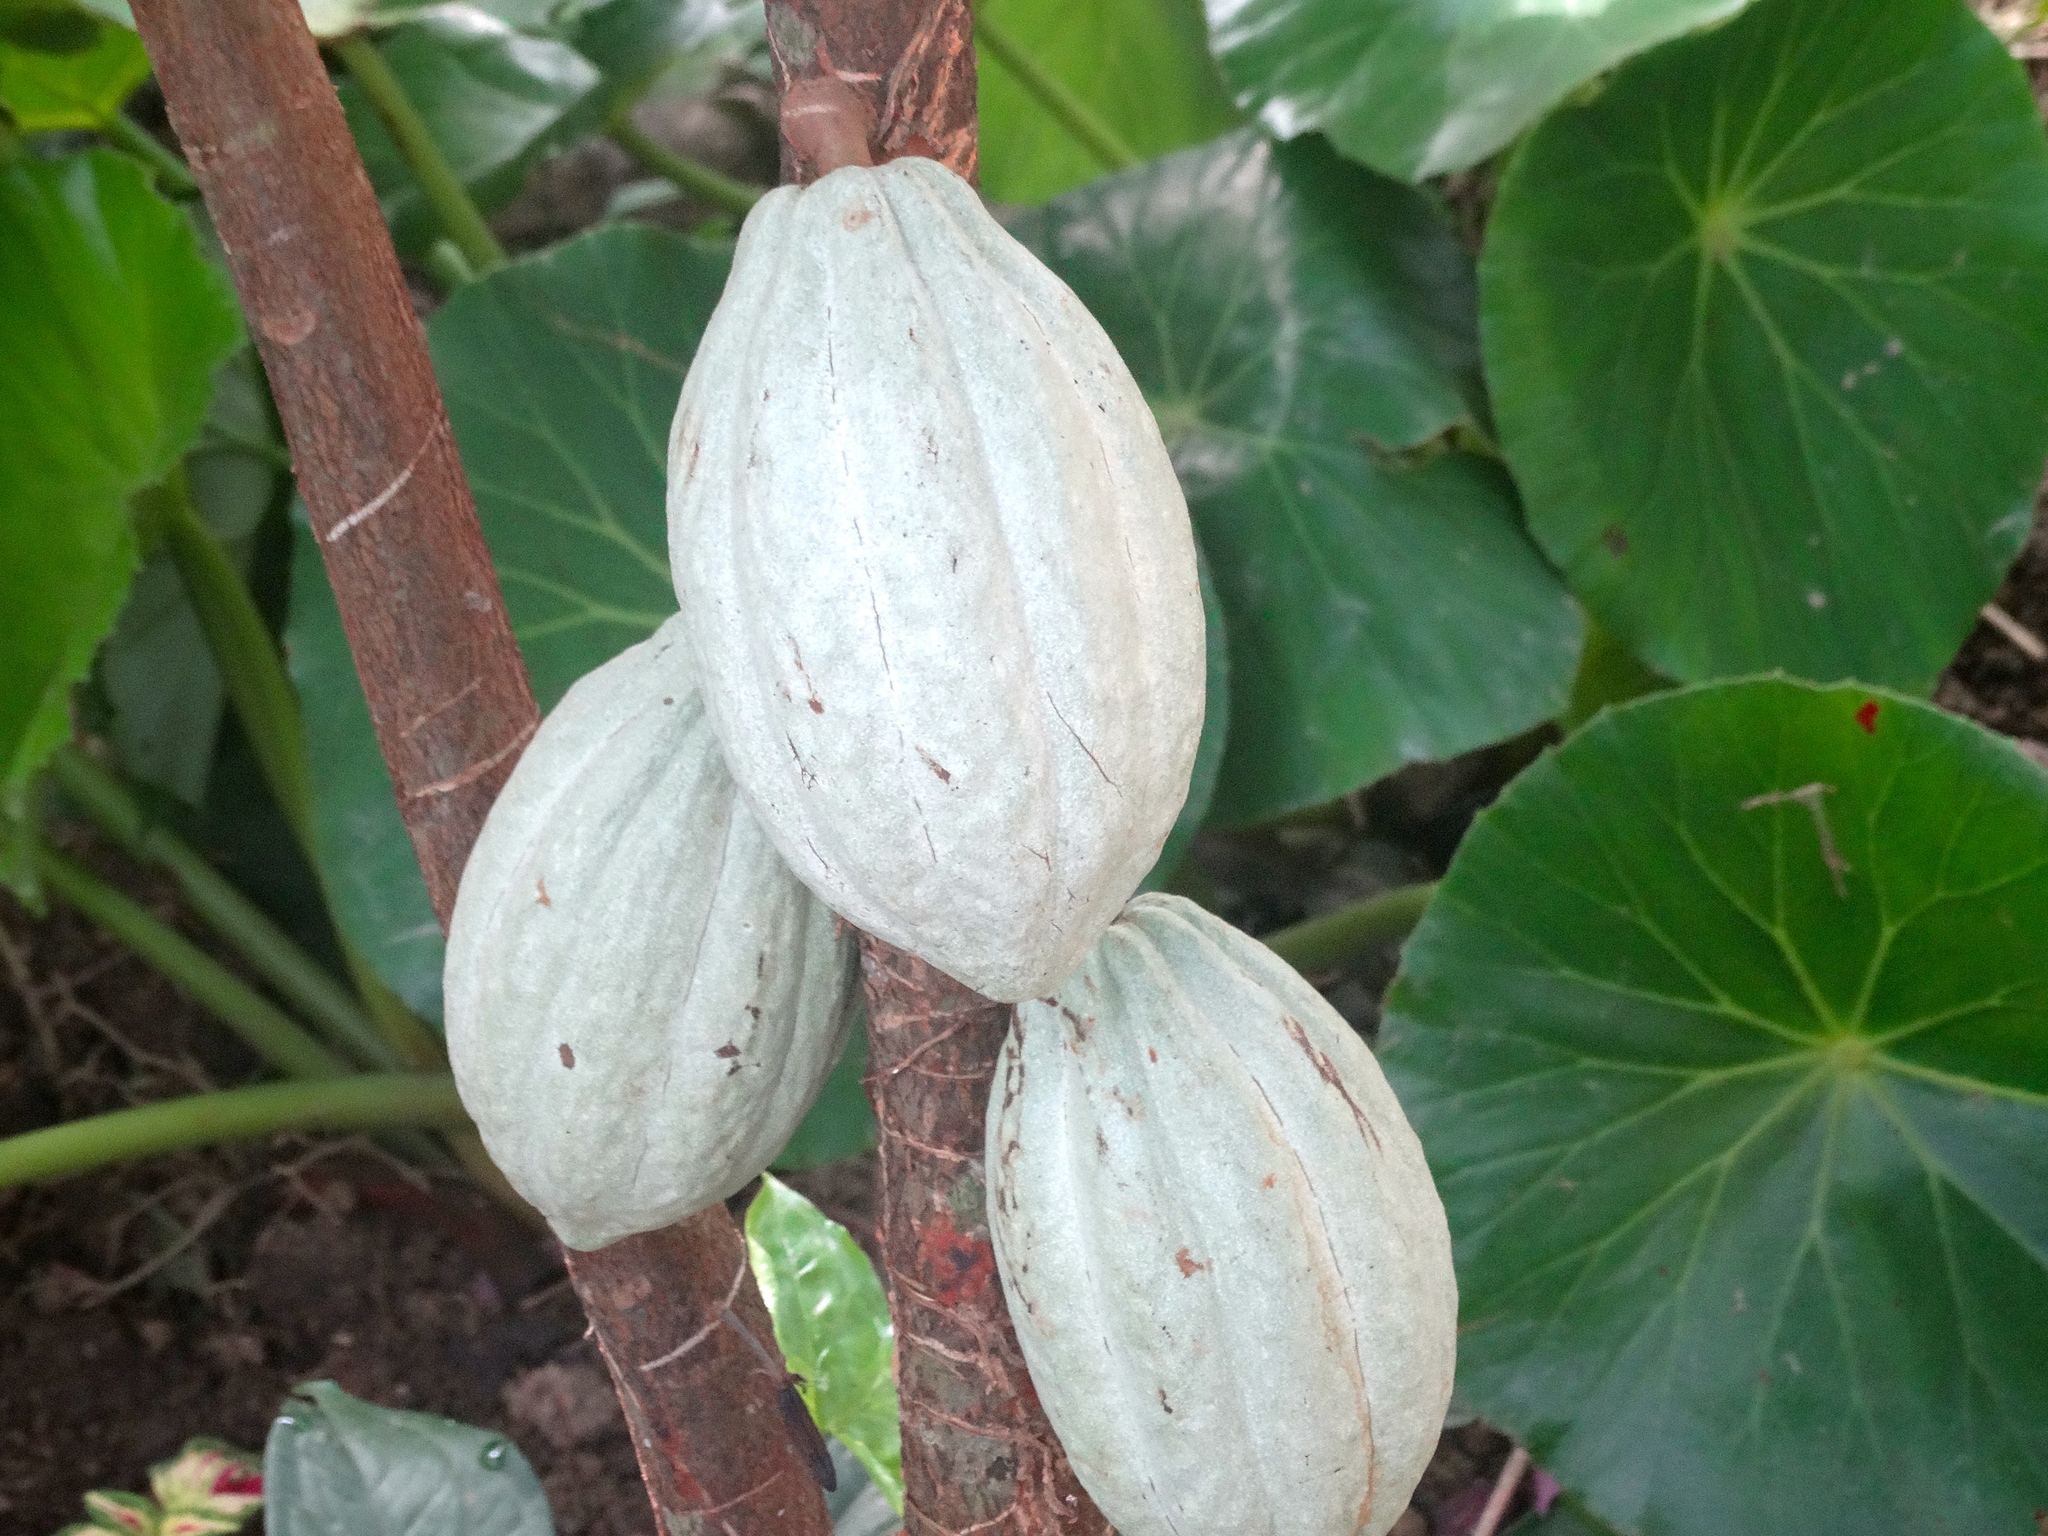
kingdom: Plantae
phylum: Tracheophyta
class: Magnoliopsida
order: Malvales
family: Malvaceae
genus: Theobroma
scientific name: Theobroma cacao
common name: Cocoa
